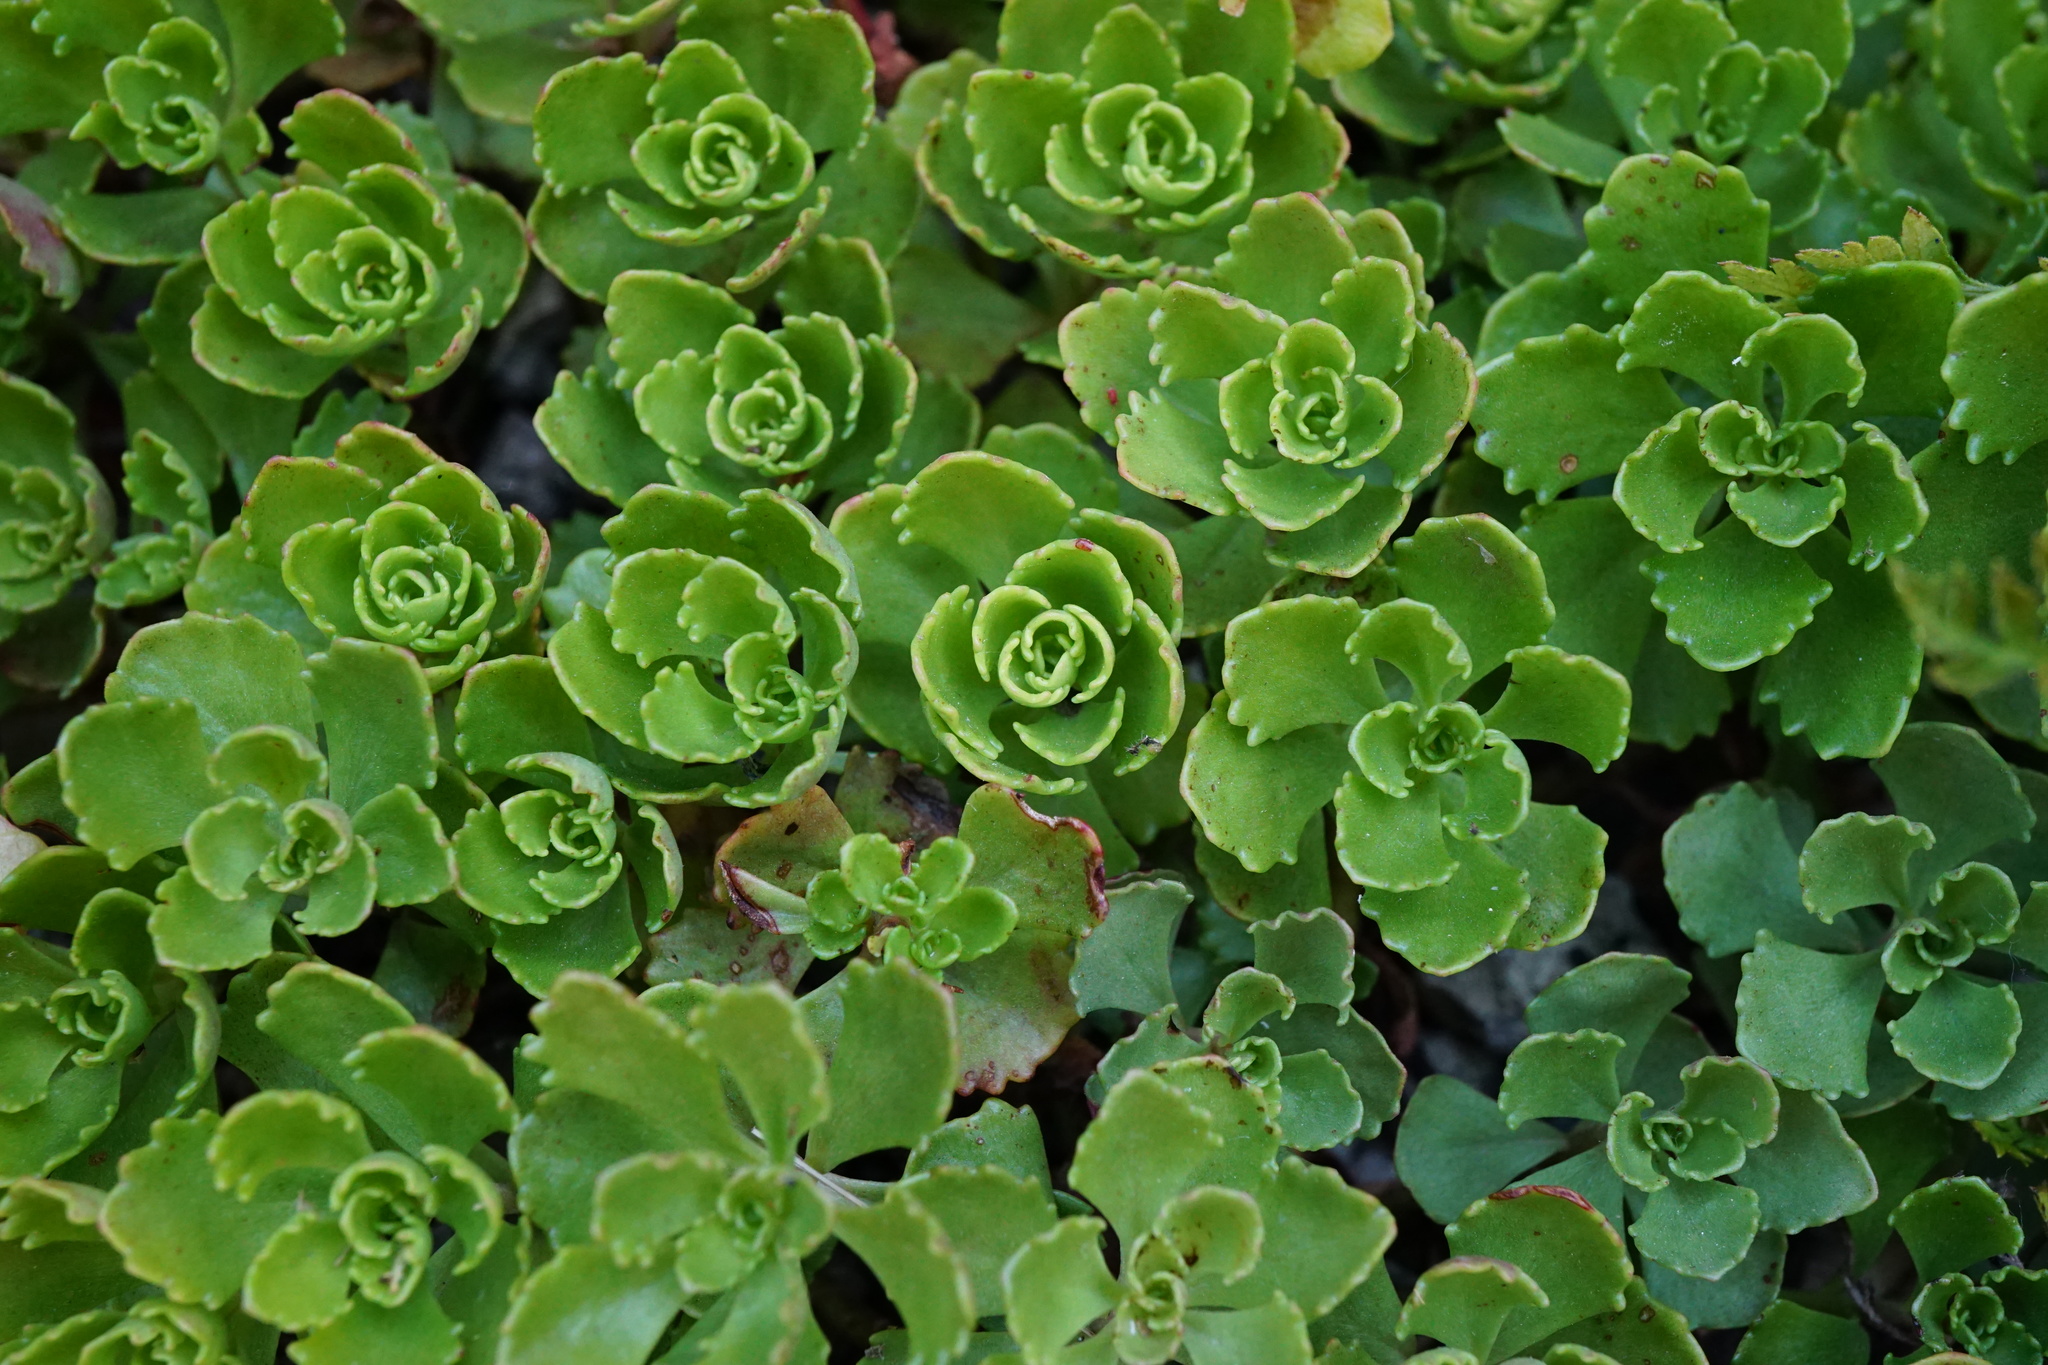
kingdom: Plantae
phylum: Tracheophyta
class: Magnoliopsida
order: Saxifragales
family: Crassulaceae
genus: Phedimus
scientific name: Phedimus hybridus
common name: Hybrid stonecrop
